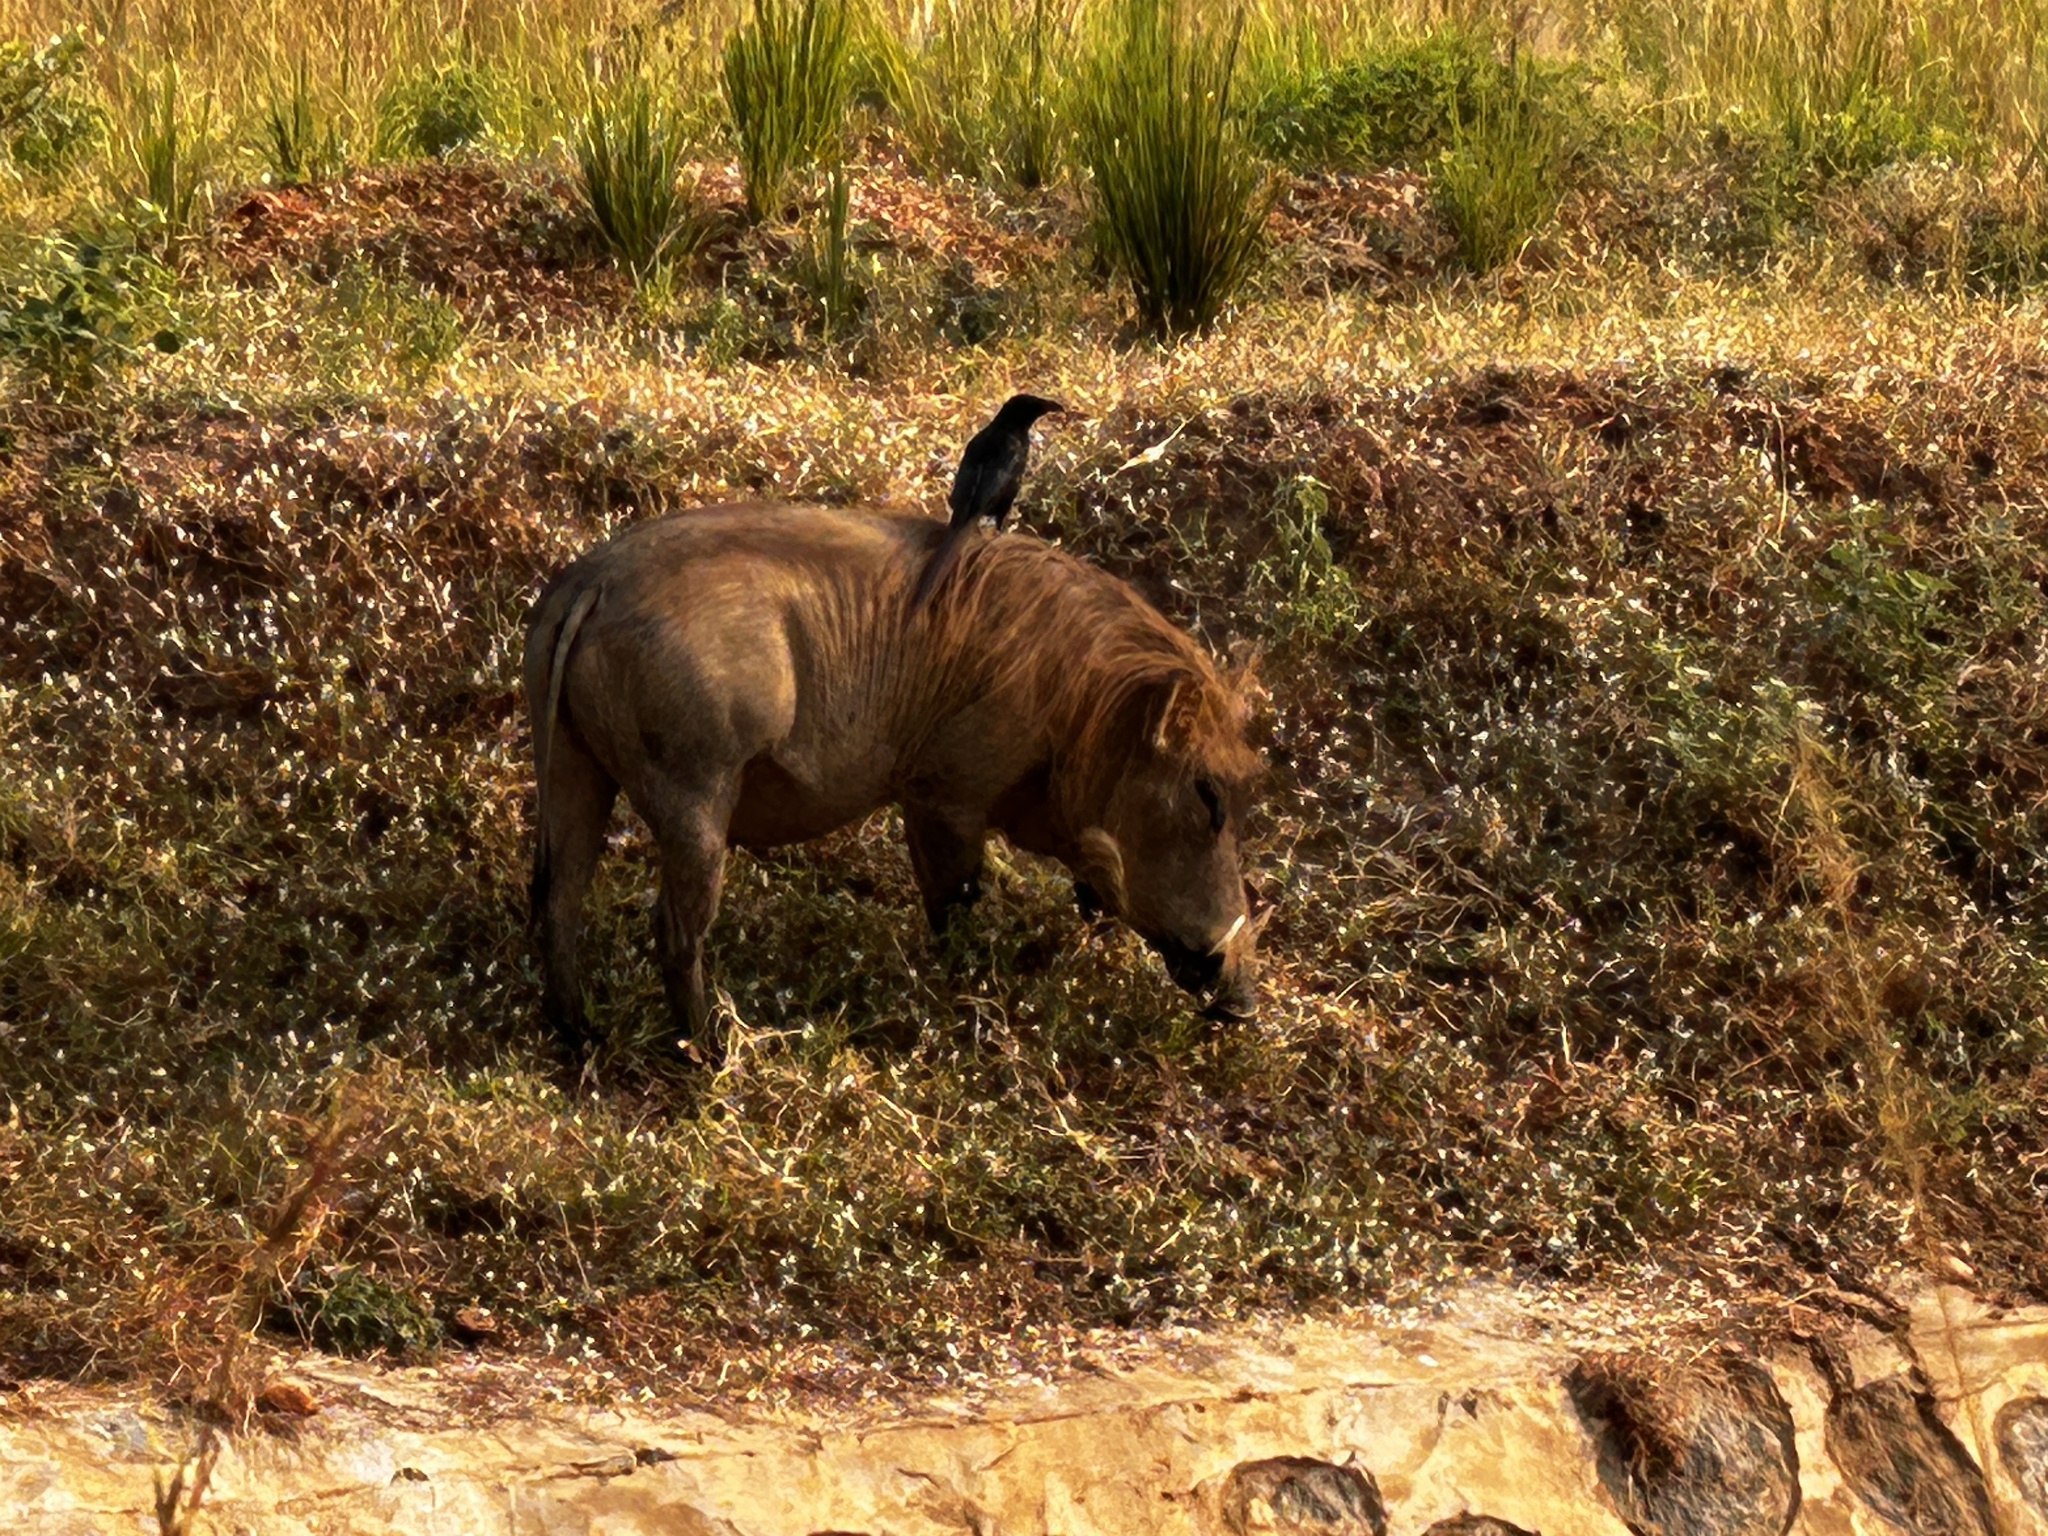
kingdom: Animalia
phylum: Chordata
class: Mammalia
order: Artiodactyla
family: Suidae
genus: Phacochoerus
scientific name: Phacochoerus africanus
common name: Common warthog
